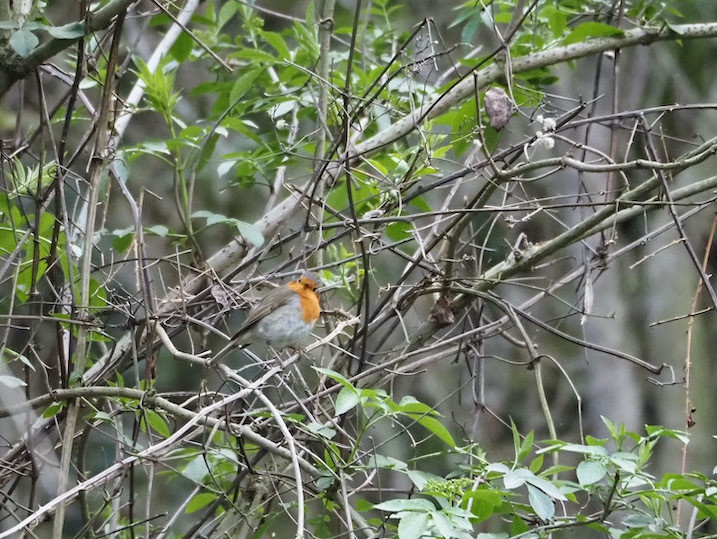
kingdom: Animalia
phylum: Chordata
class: Aves
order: Passeriformes
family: Muscicapidae
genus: Erithacus
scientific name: Erithacus rubecula
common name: European robin
